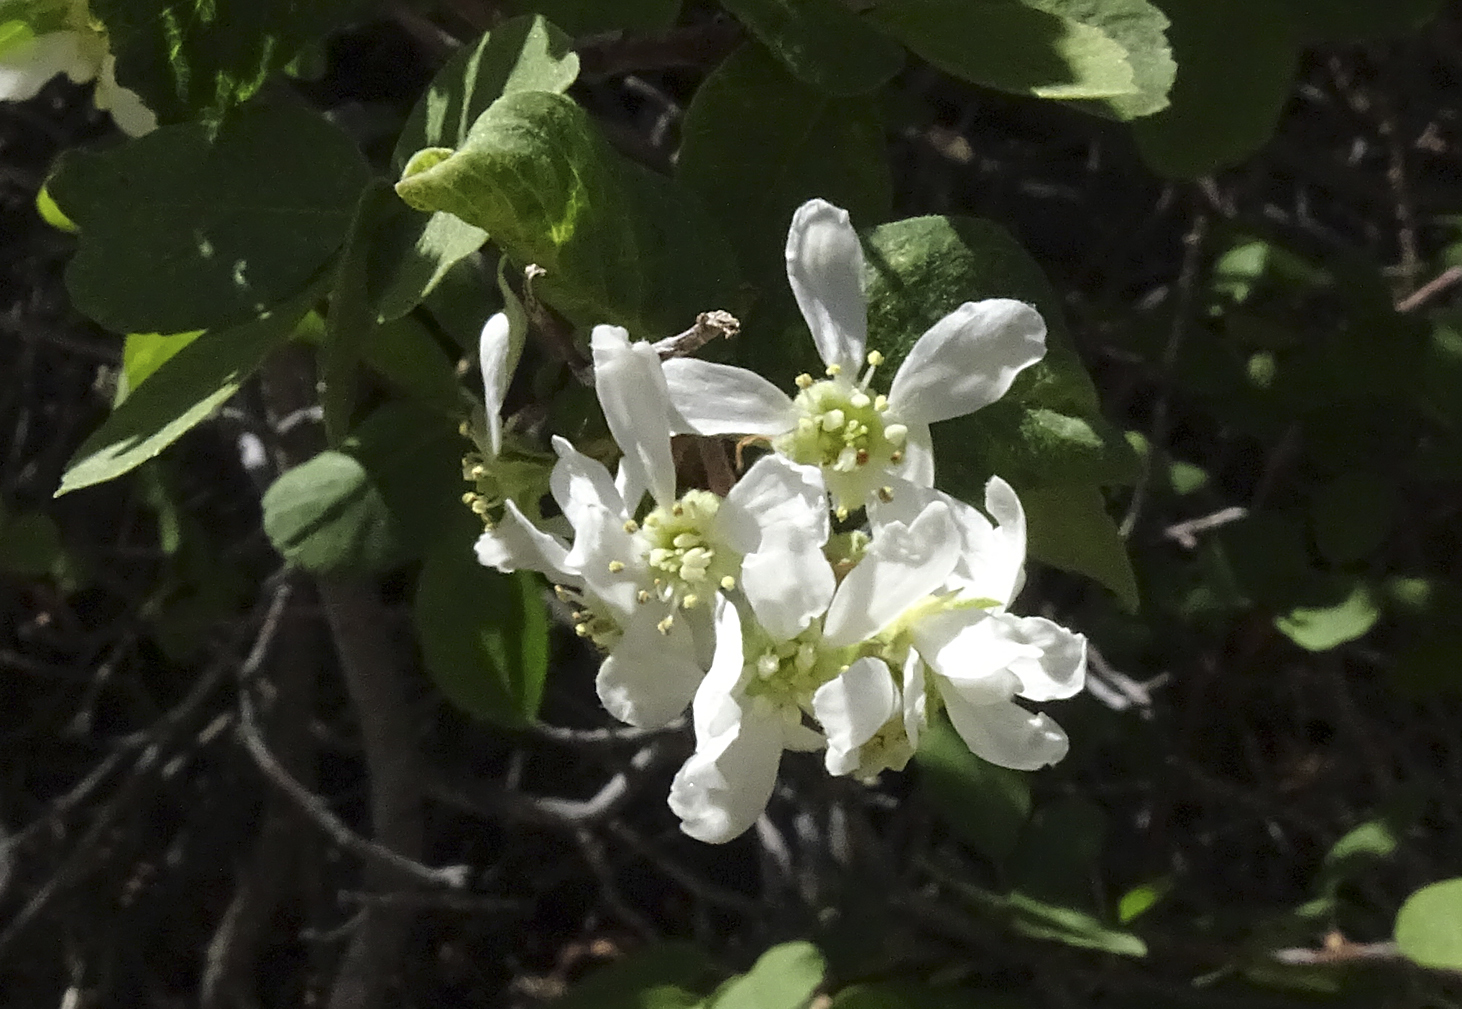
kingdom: Plantae
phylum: Tracheophyta
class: Magnoliopsida
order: Rosales
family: Rosaceae
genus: Amelanchier
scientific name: Amelanchier utahensis
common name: Utah serviceberry
